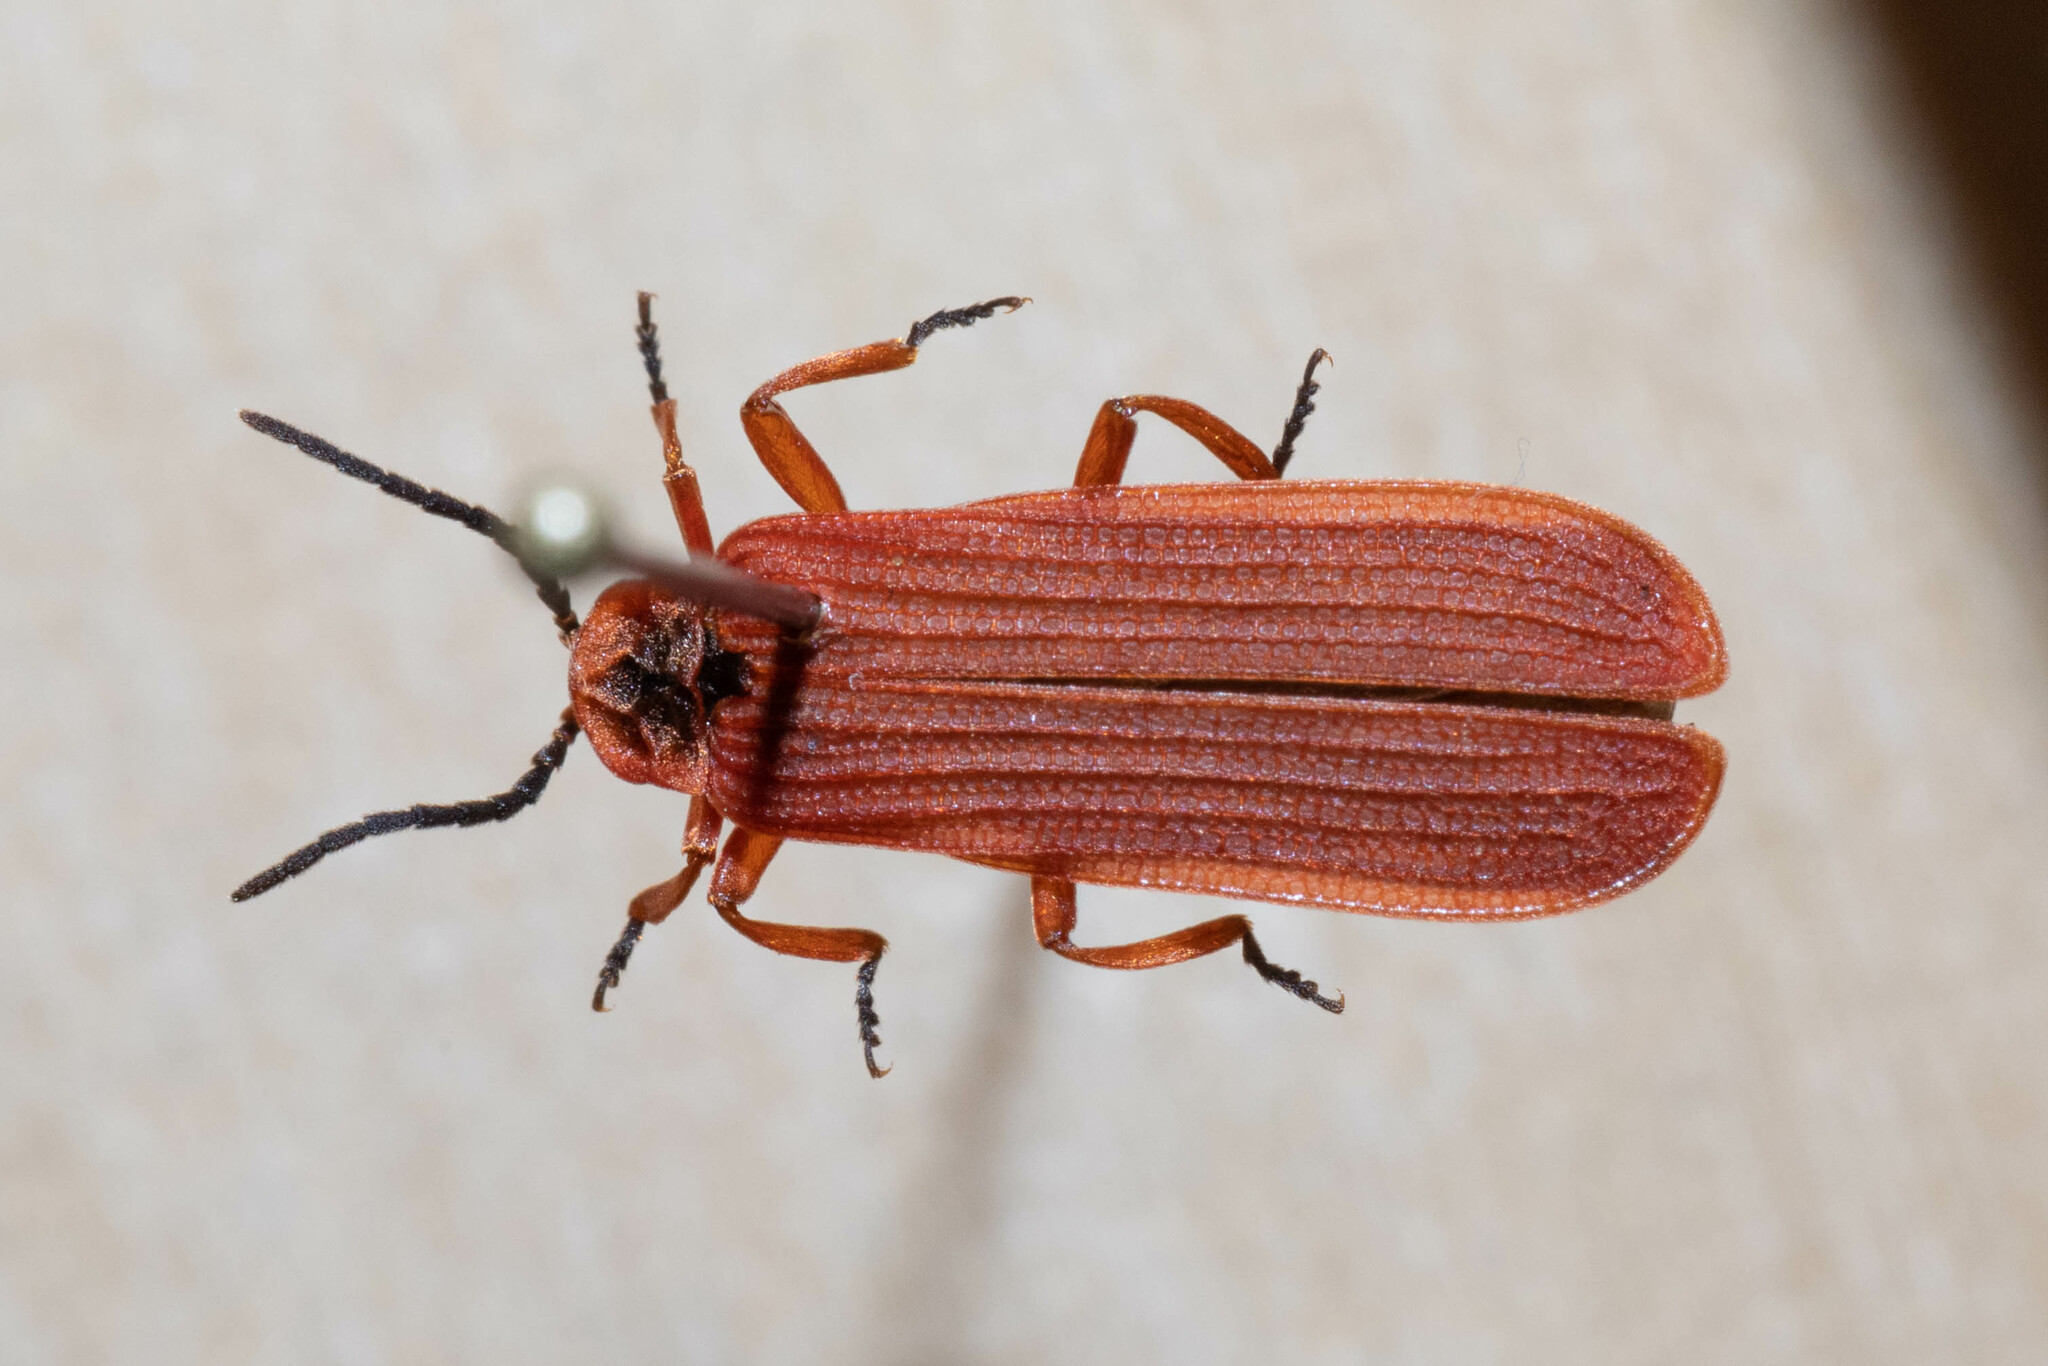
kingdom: Animalia
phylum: Arthropoda
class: Insecta
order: Coleoptera
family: Lycidae
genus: Dictyoptera
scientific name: Dictyoptera simplicipes
